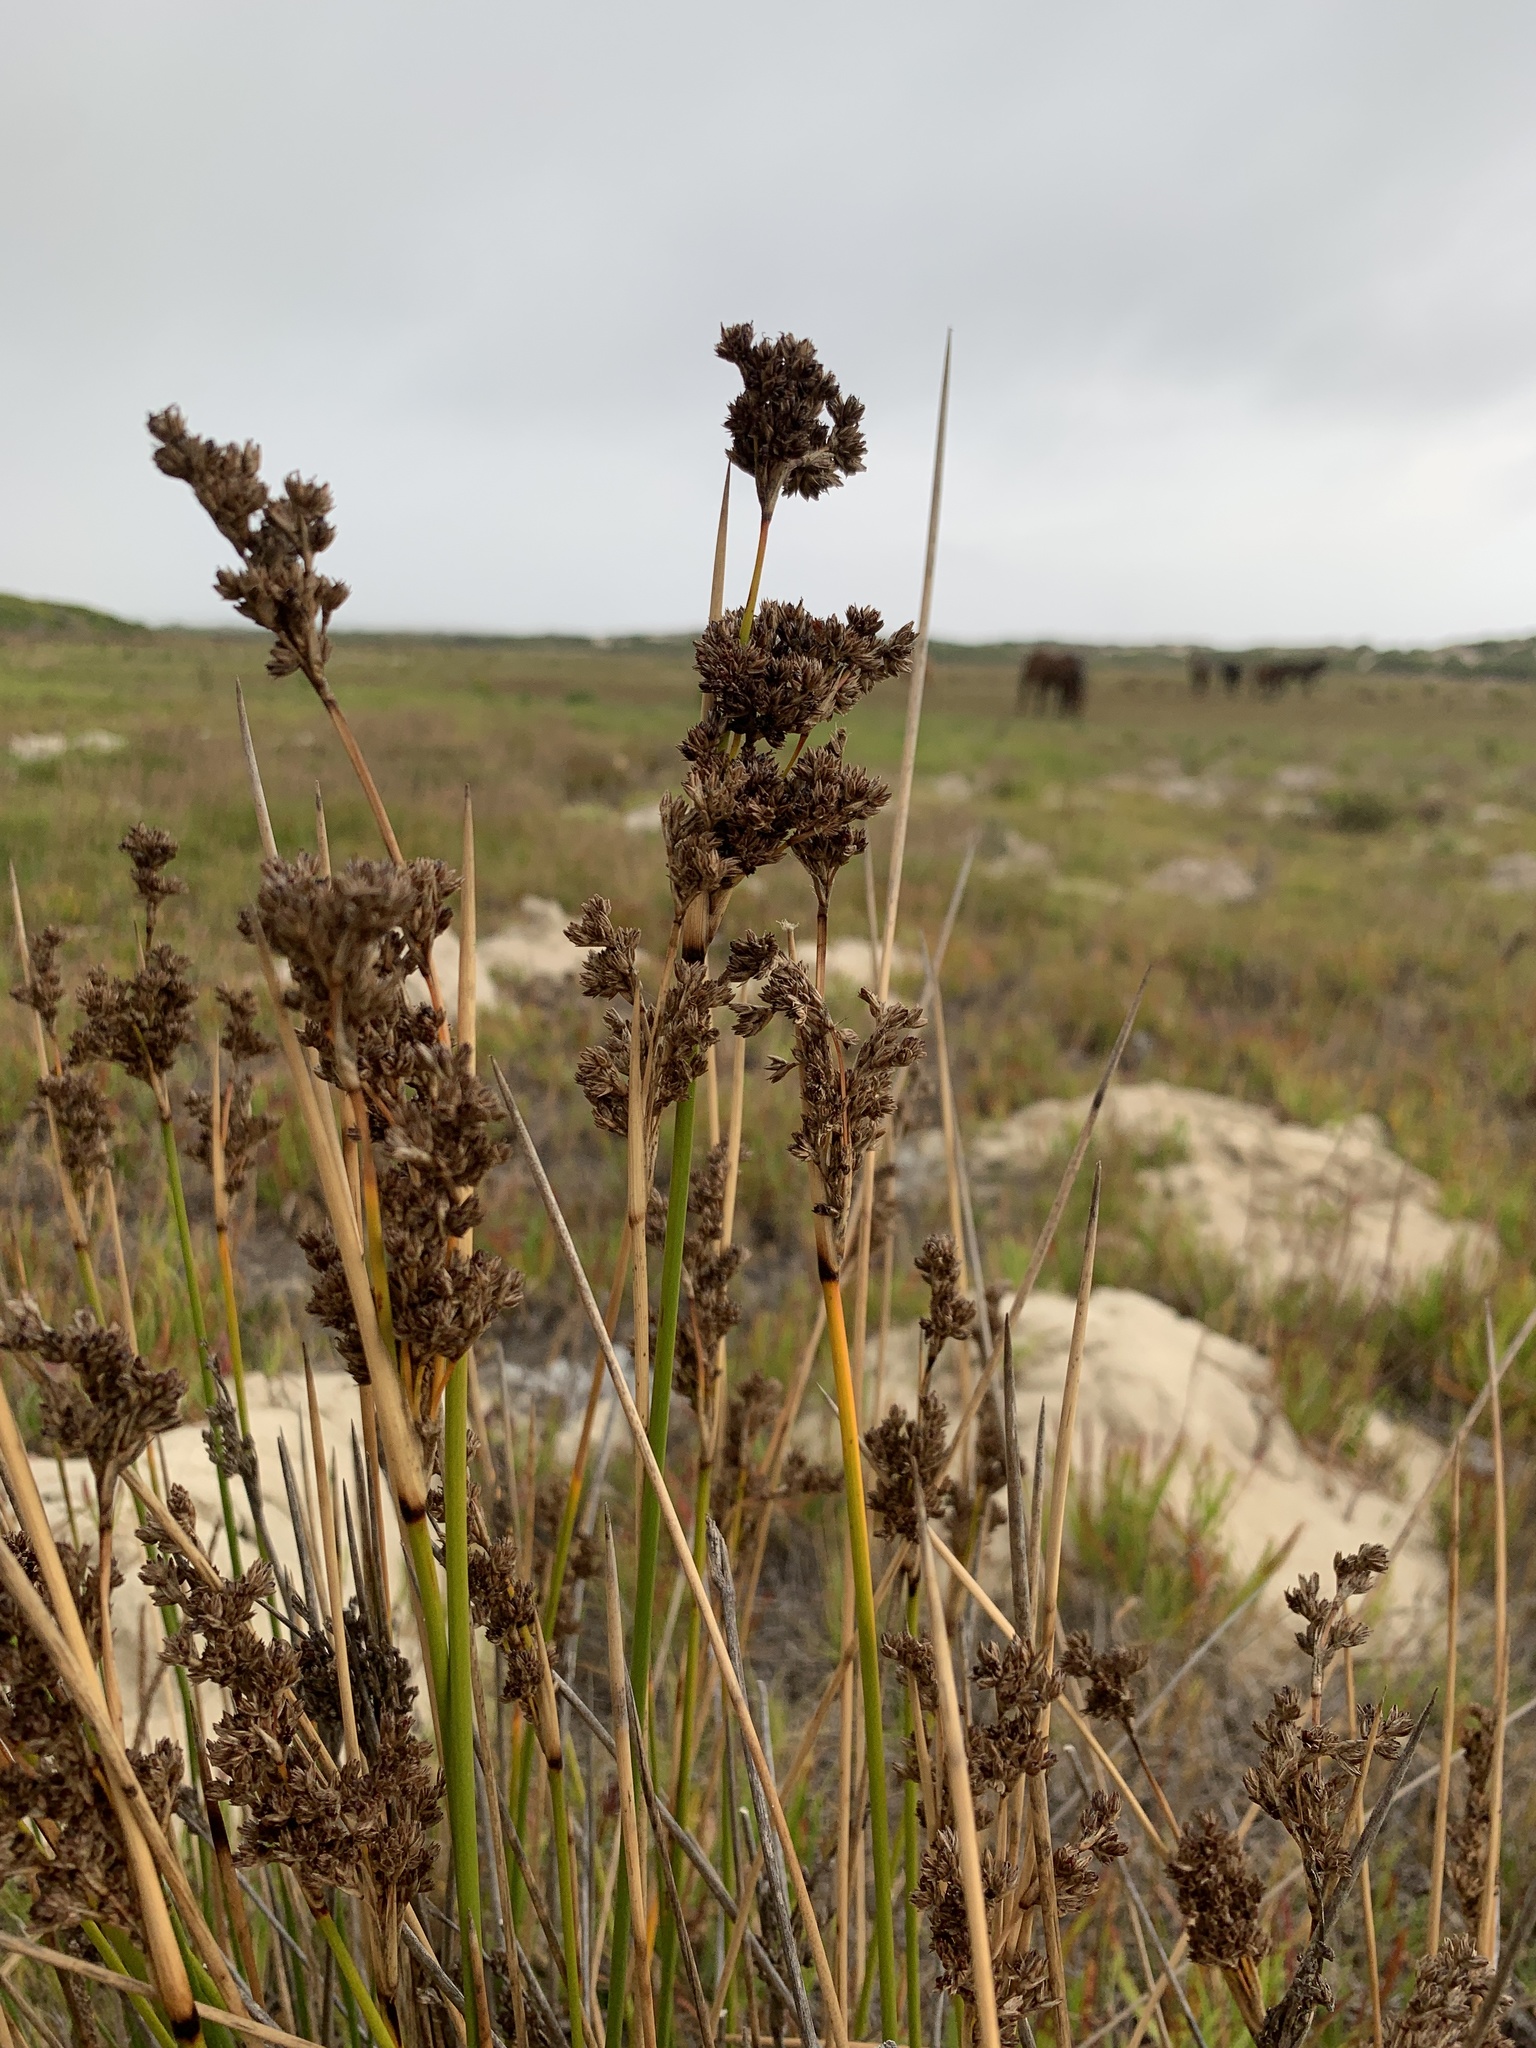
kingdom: Plantae
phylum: Tracheophyta
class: Liliopsida
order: Poales
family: Juncaceae
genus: Juncus
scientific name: Juncus kraussii
